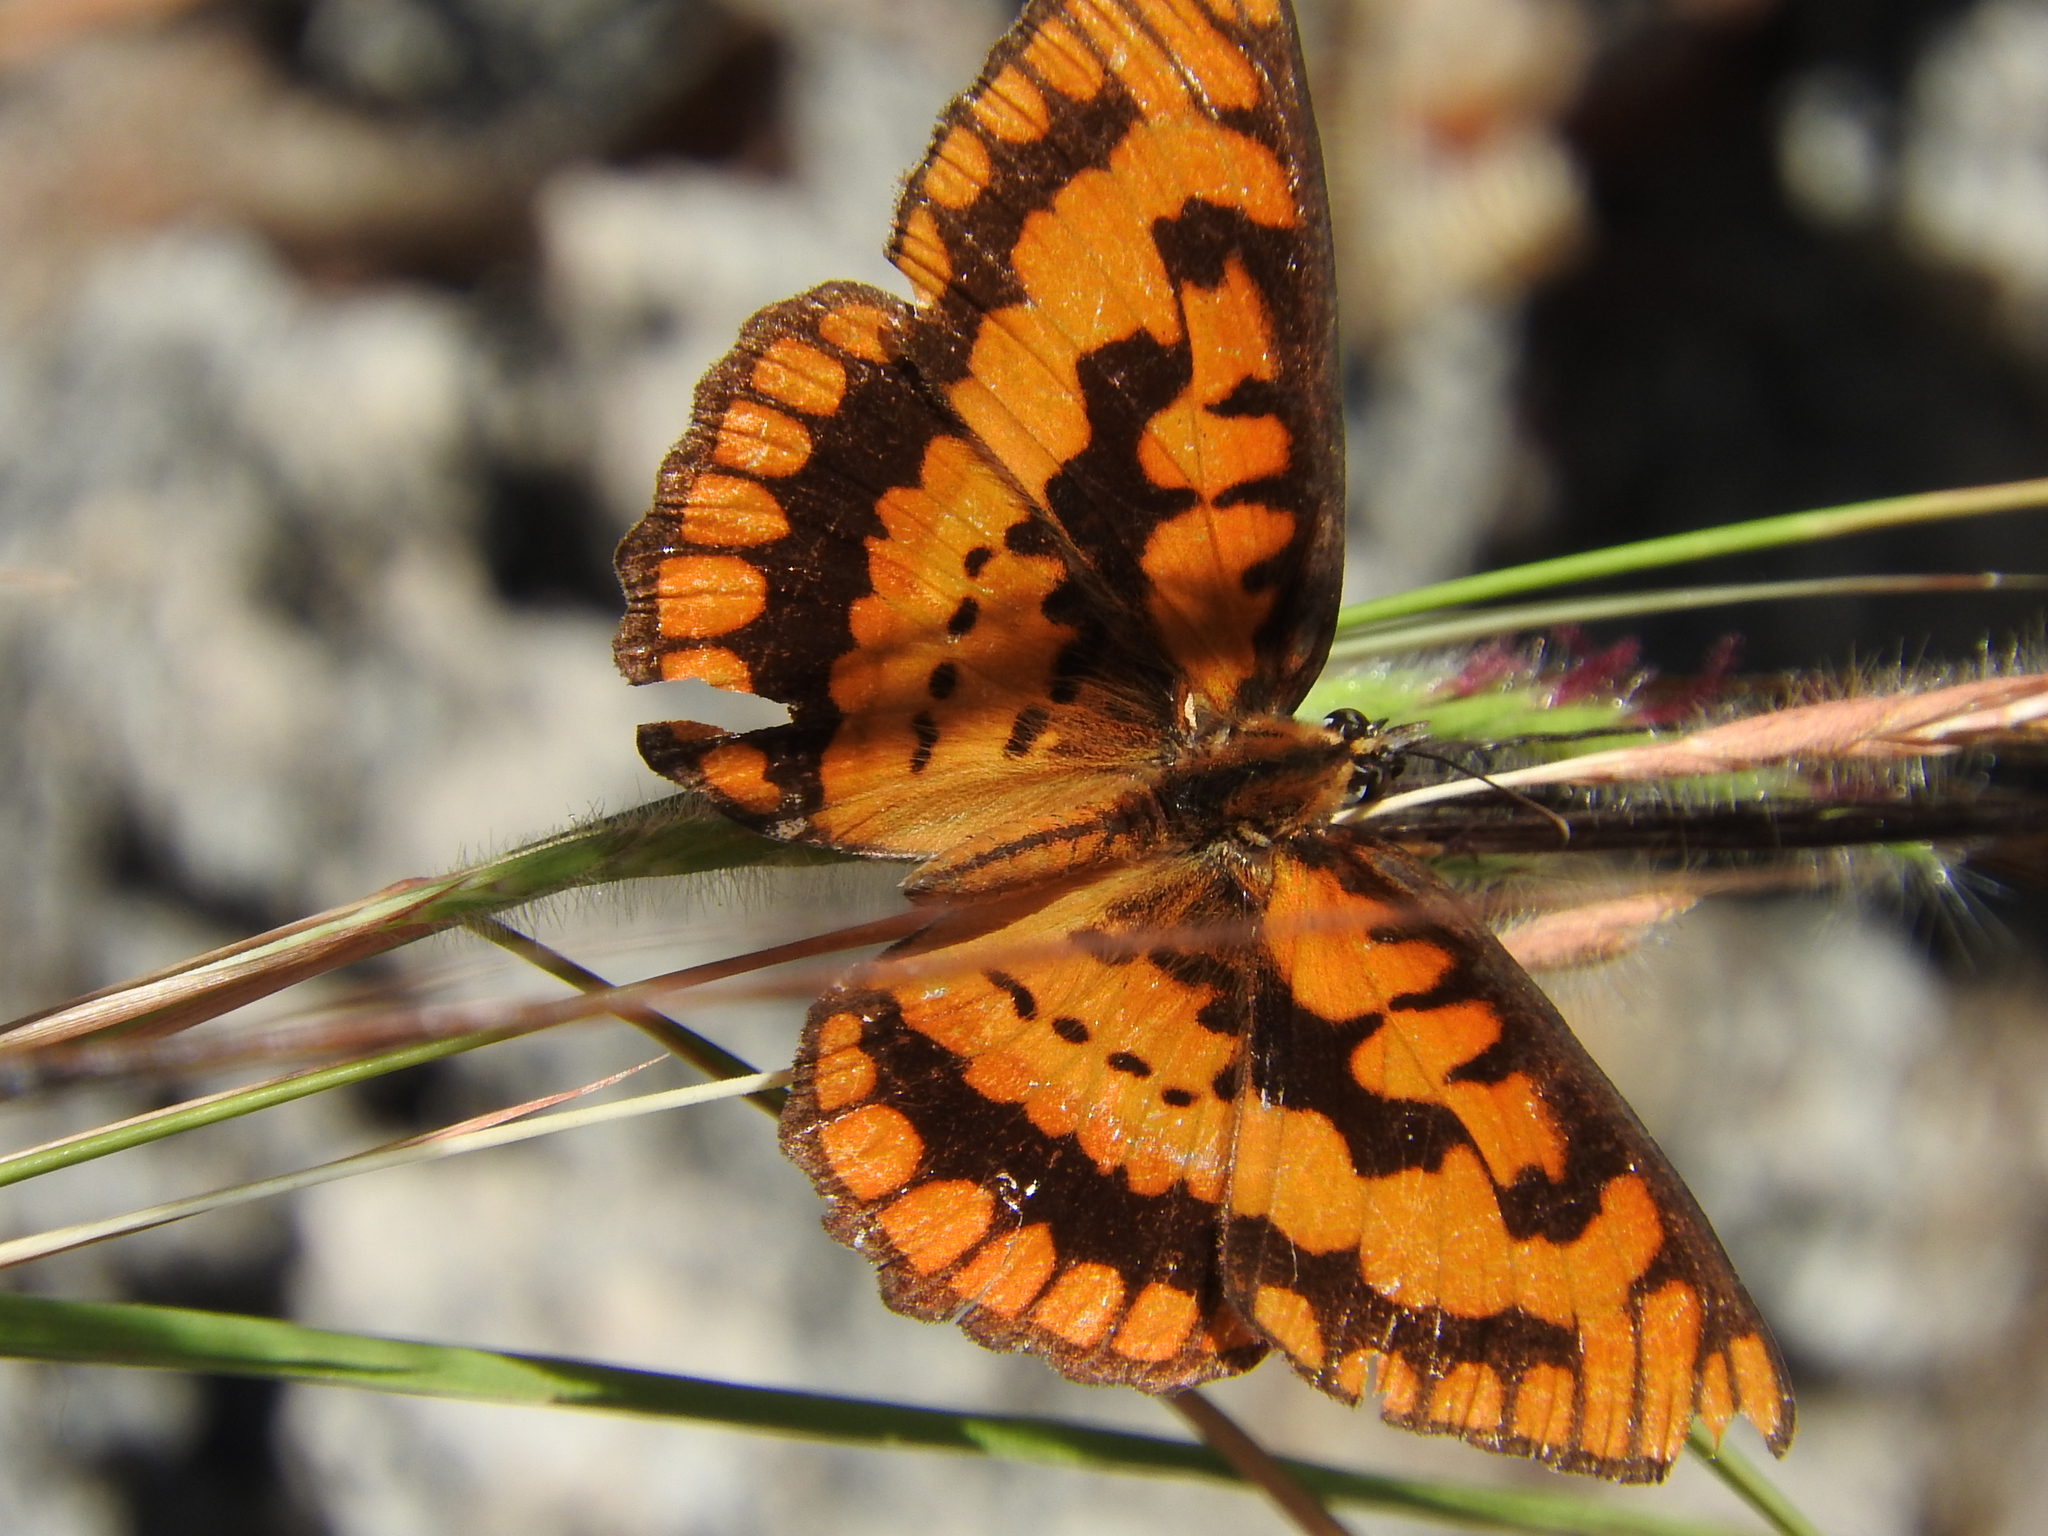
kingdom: Animalia
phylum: Arthropoda
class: Insecta
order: Lepidoptera
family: Nymphalidae
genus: Byblia
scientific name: Byblia ilithyia
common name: Spotted joker
